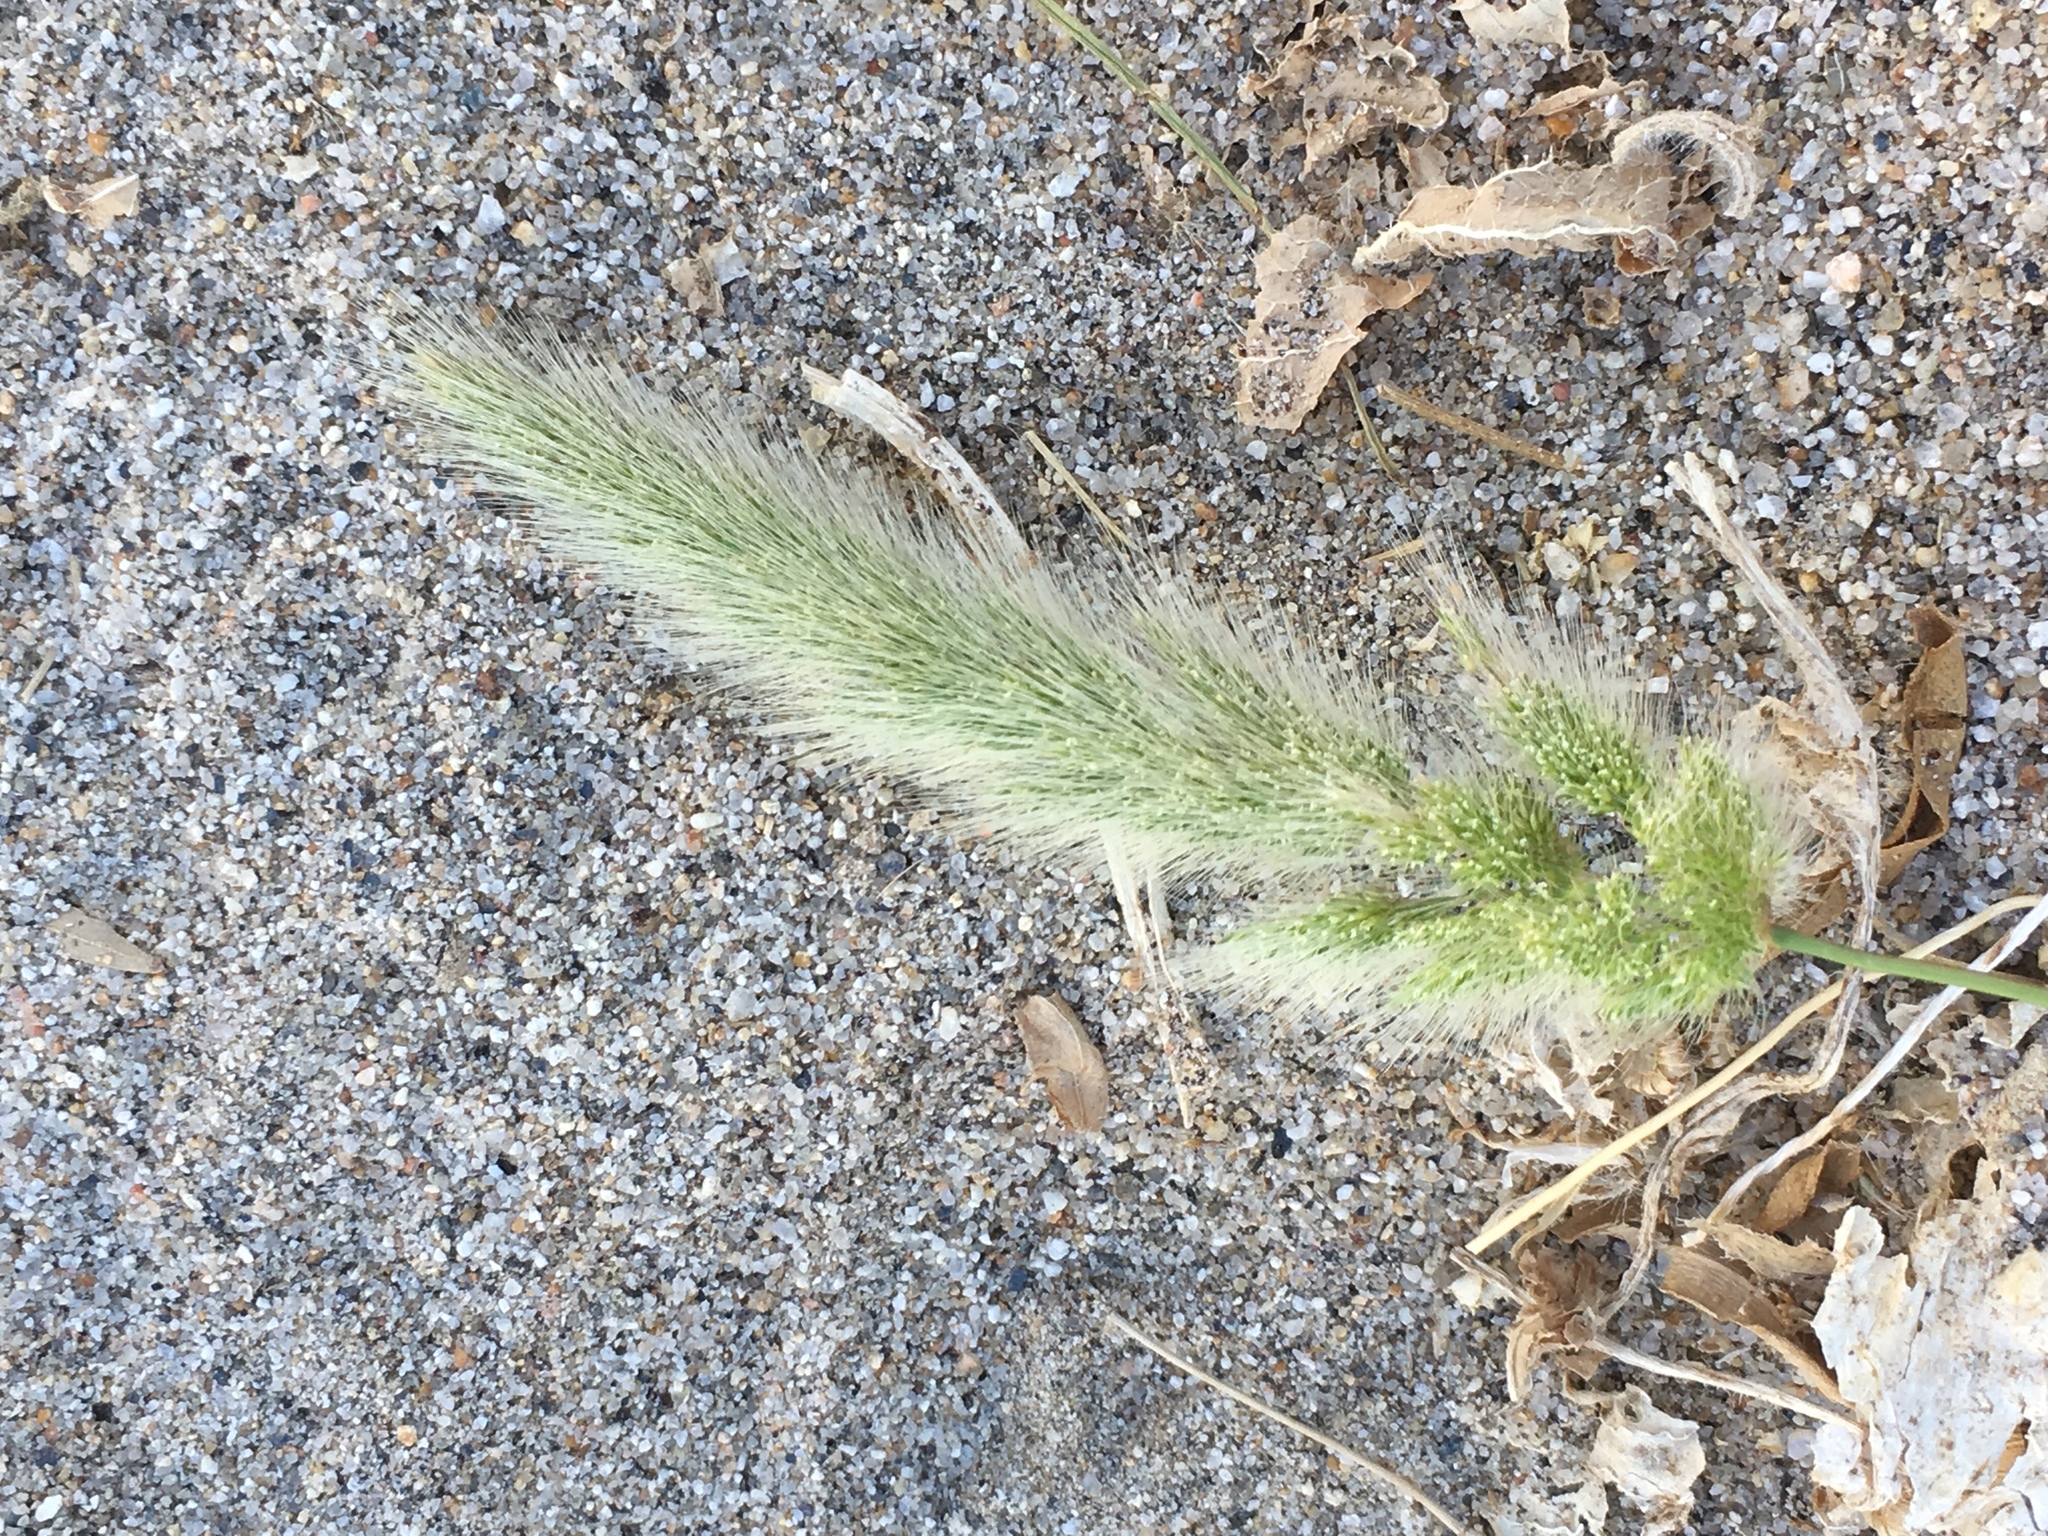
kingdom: Plantae
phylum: Tracheophyta
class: Liliopsida
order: Poales
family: Poaceae
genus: Polypogon
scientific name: Polypogon monspeliensis
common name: Annual rabbitsfoot grass
